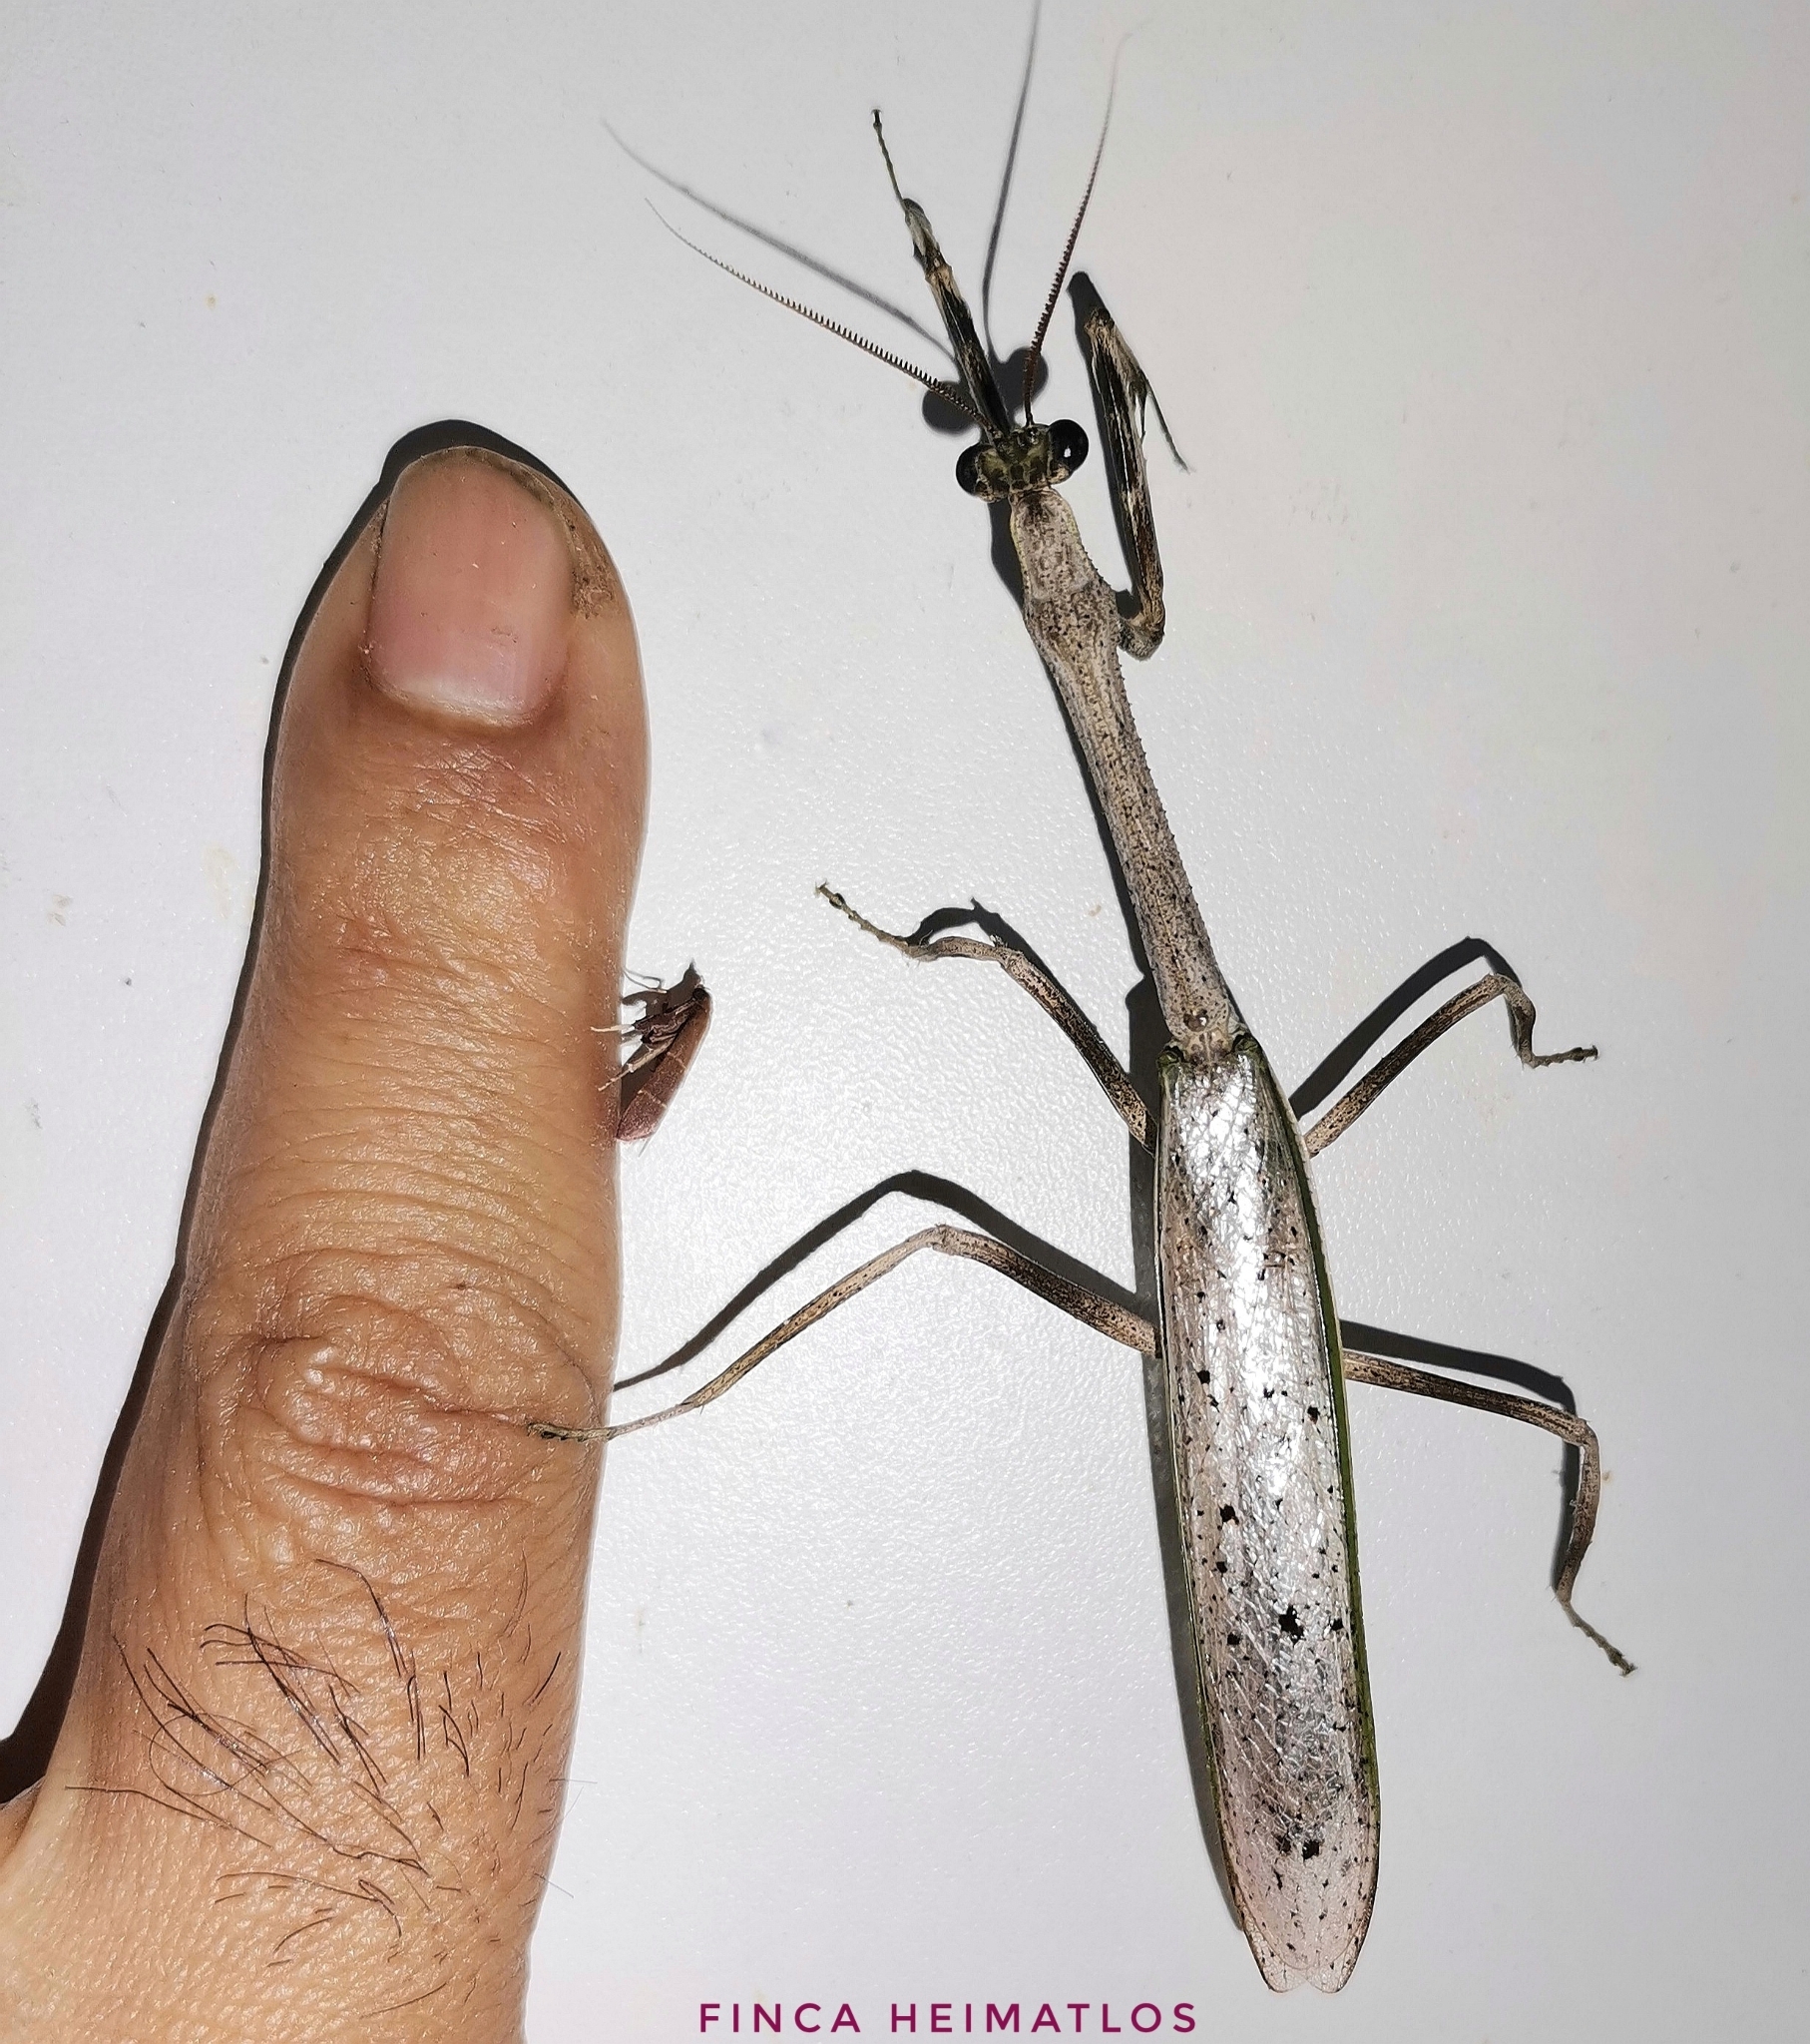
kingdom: Animalia
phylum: Arthropoda
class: Insecta
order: Mantodea
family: Mantidae
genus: Pseudovates
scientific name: Pseudovates brasiliensis
